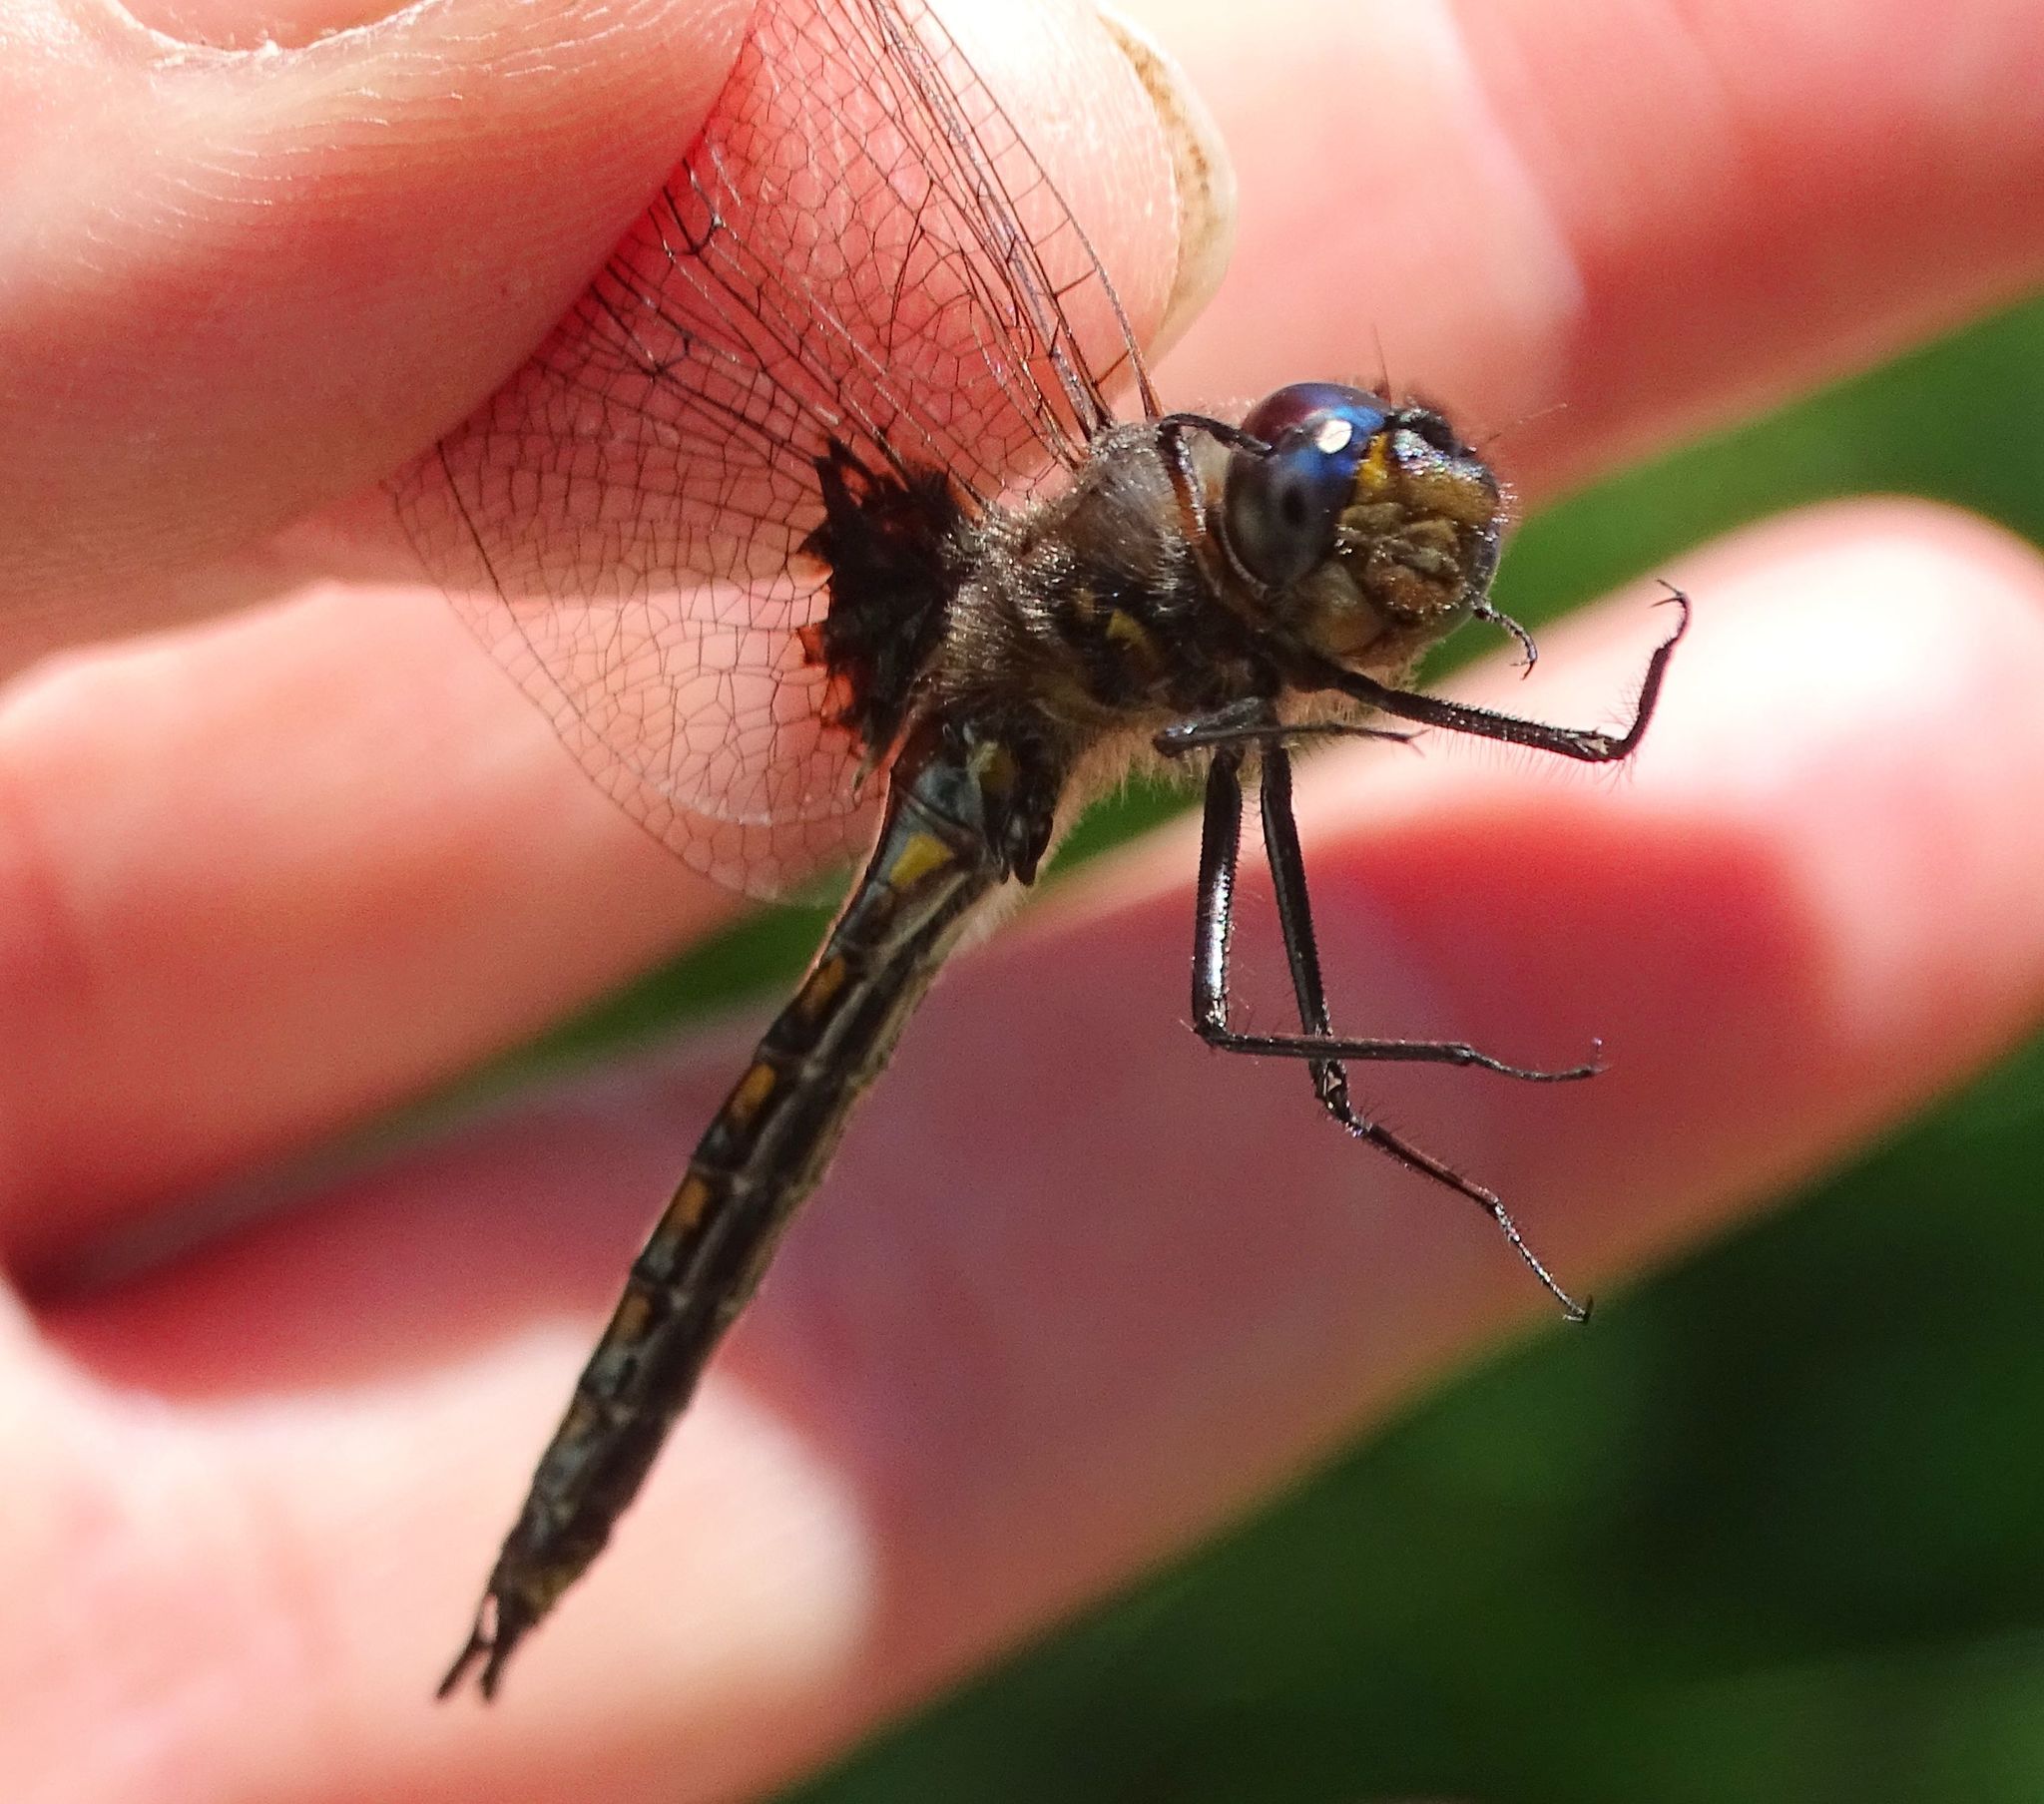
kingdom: Animalia
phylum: Arthropoda
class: Insecta
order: Odonata
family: Corduliidae
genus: Epitheca
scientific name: Epitheca cynosura
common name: Common baskettail
